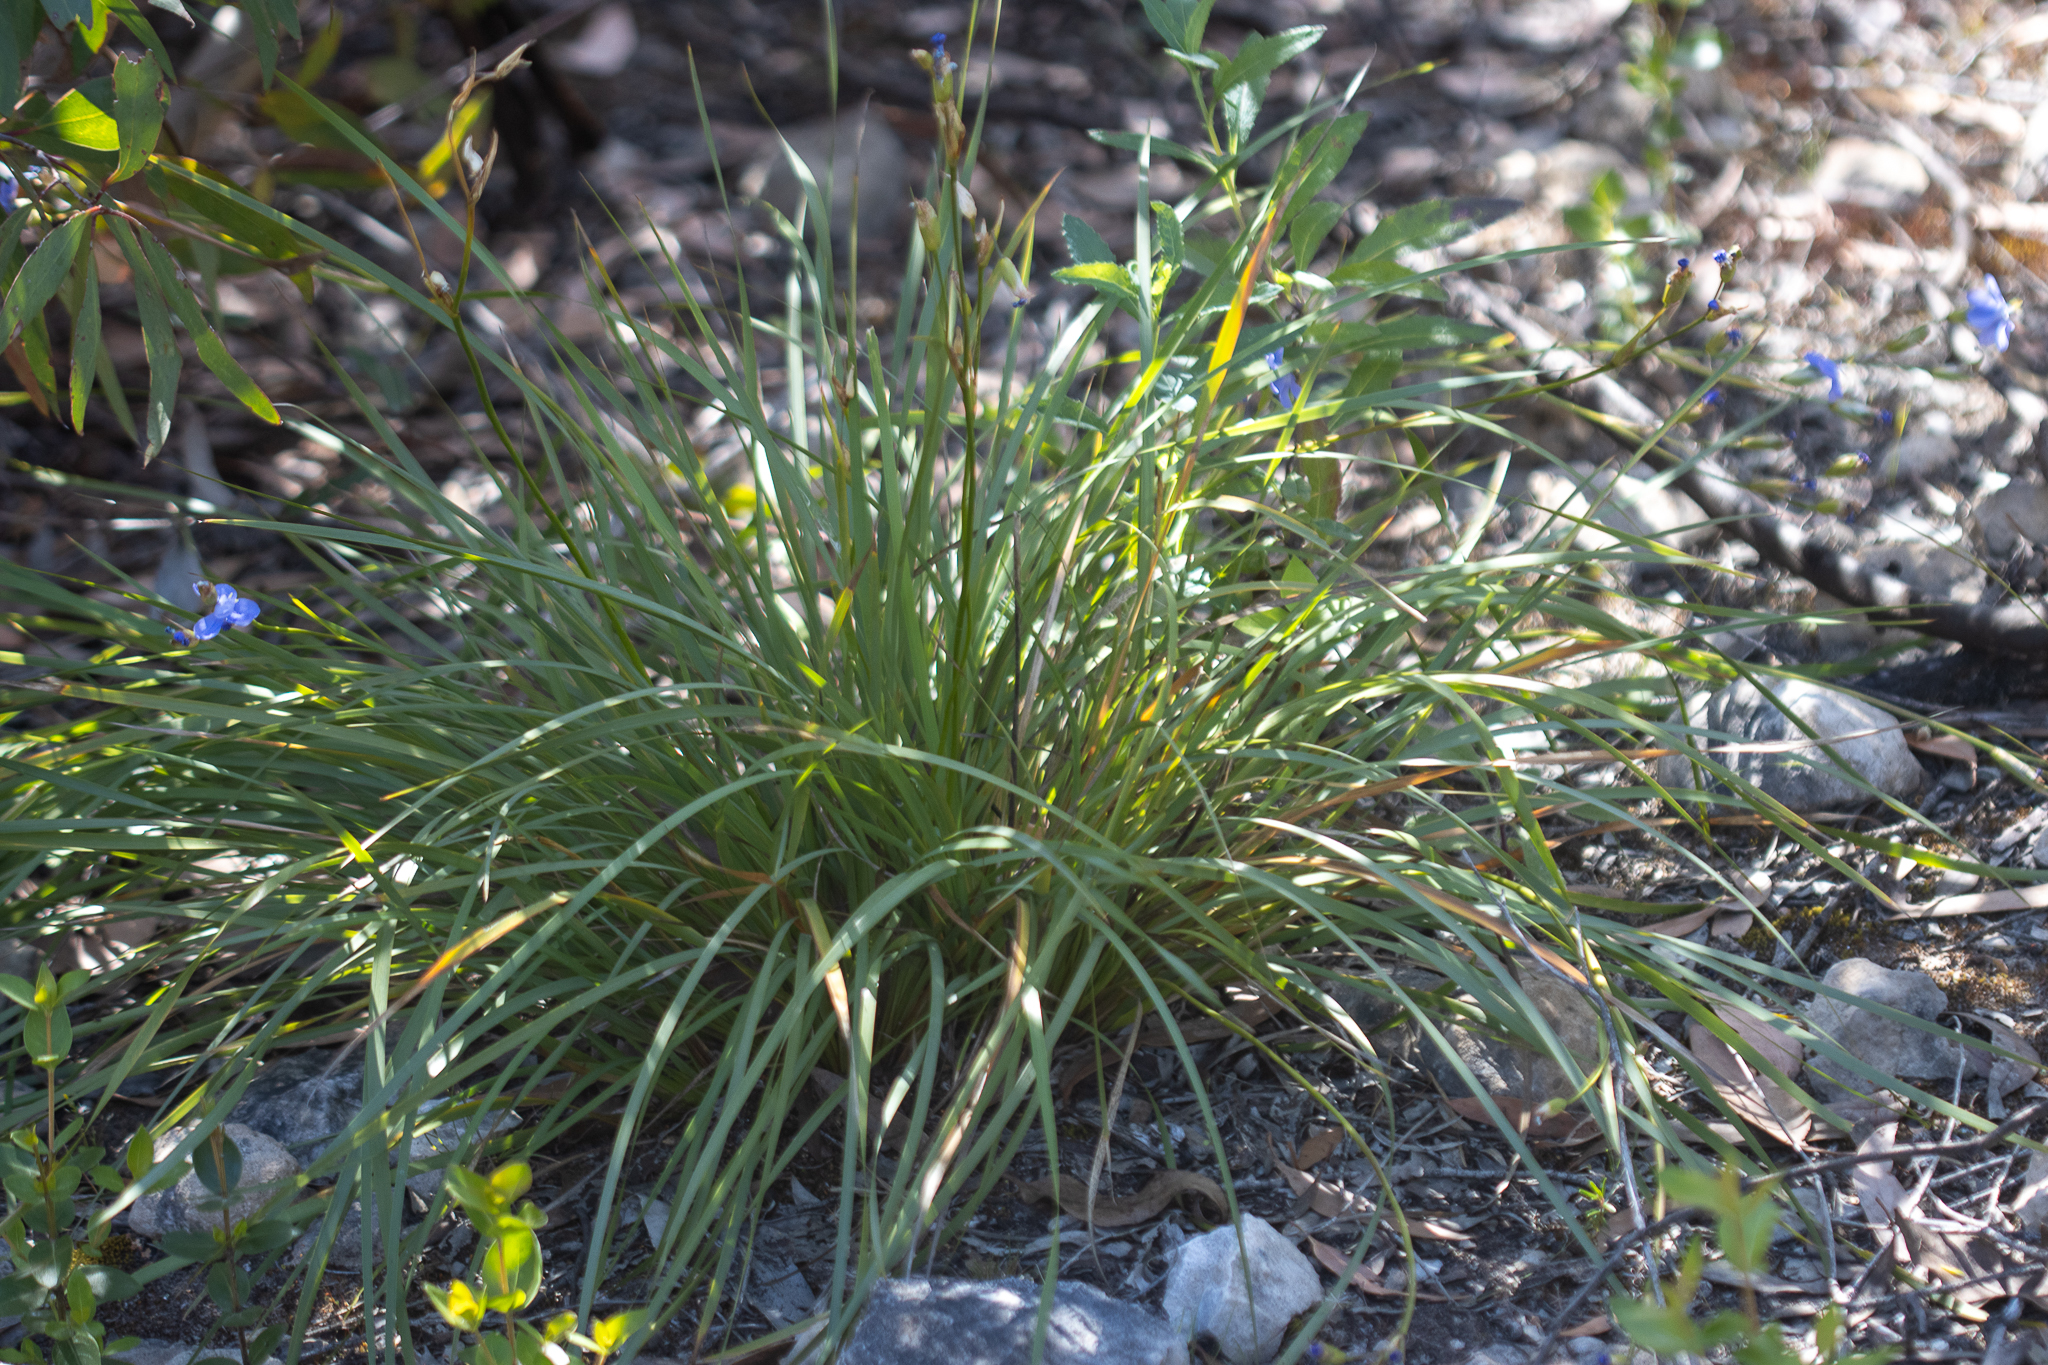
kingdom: Plantae
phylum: Tracheophyta
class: Liliopsida
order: Asparagales
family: Iridaceae
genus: Orthrosanthus
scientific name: Orthrosanthus multiflorus
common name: Morning-flag
